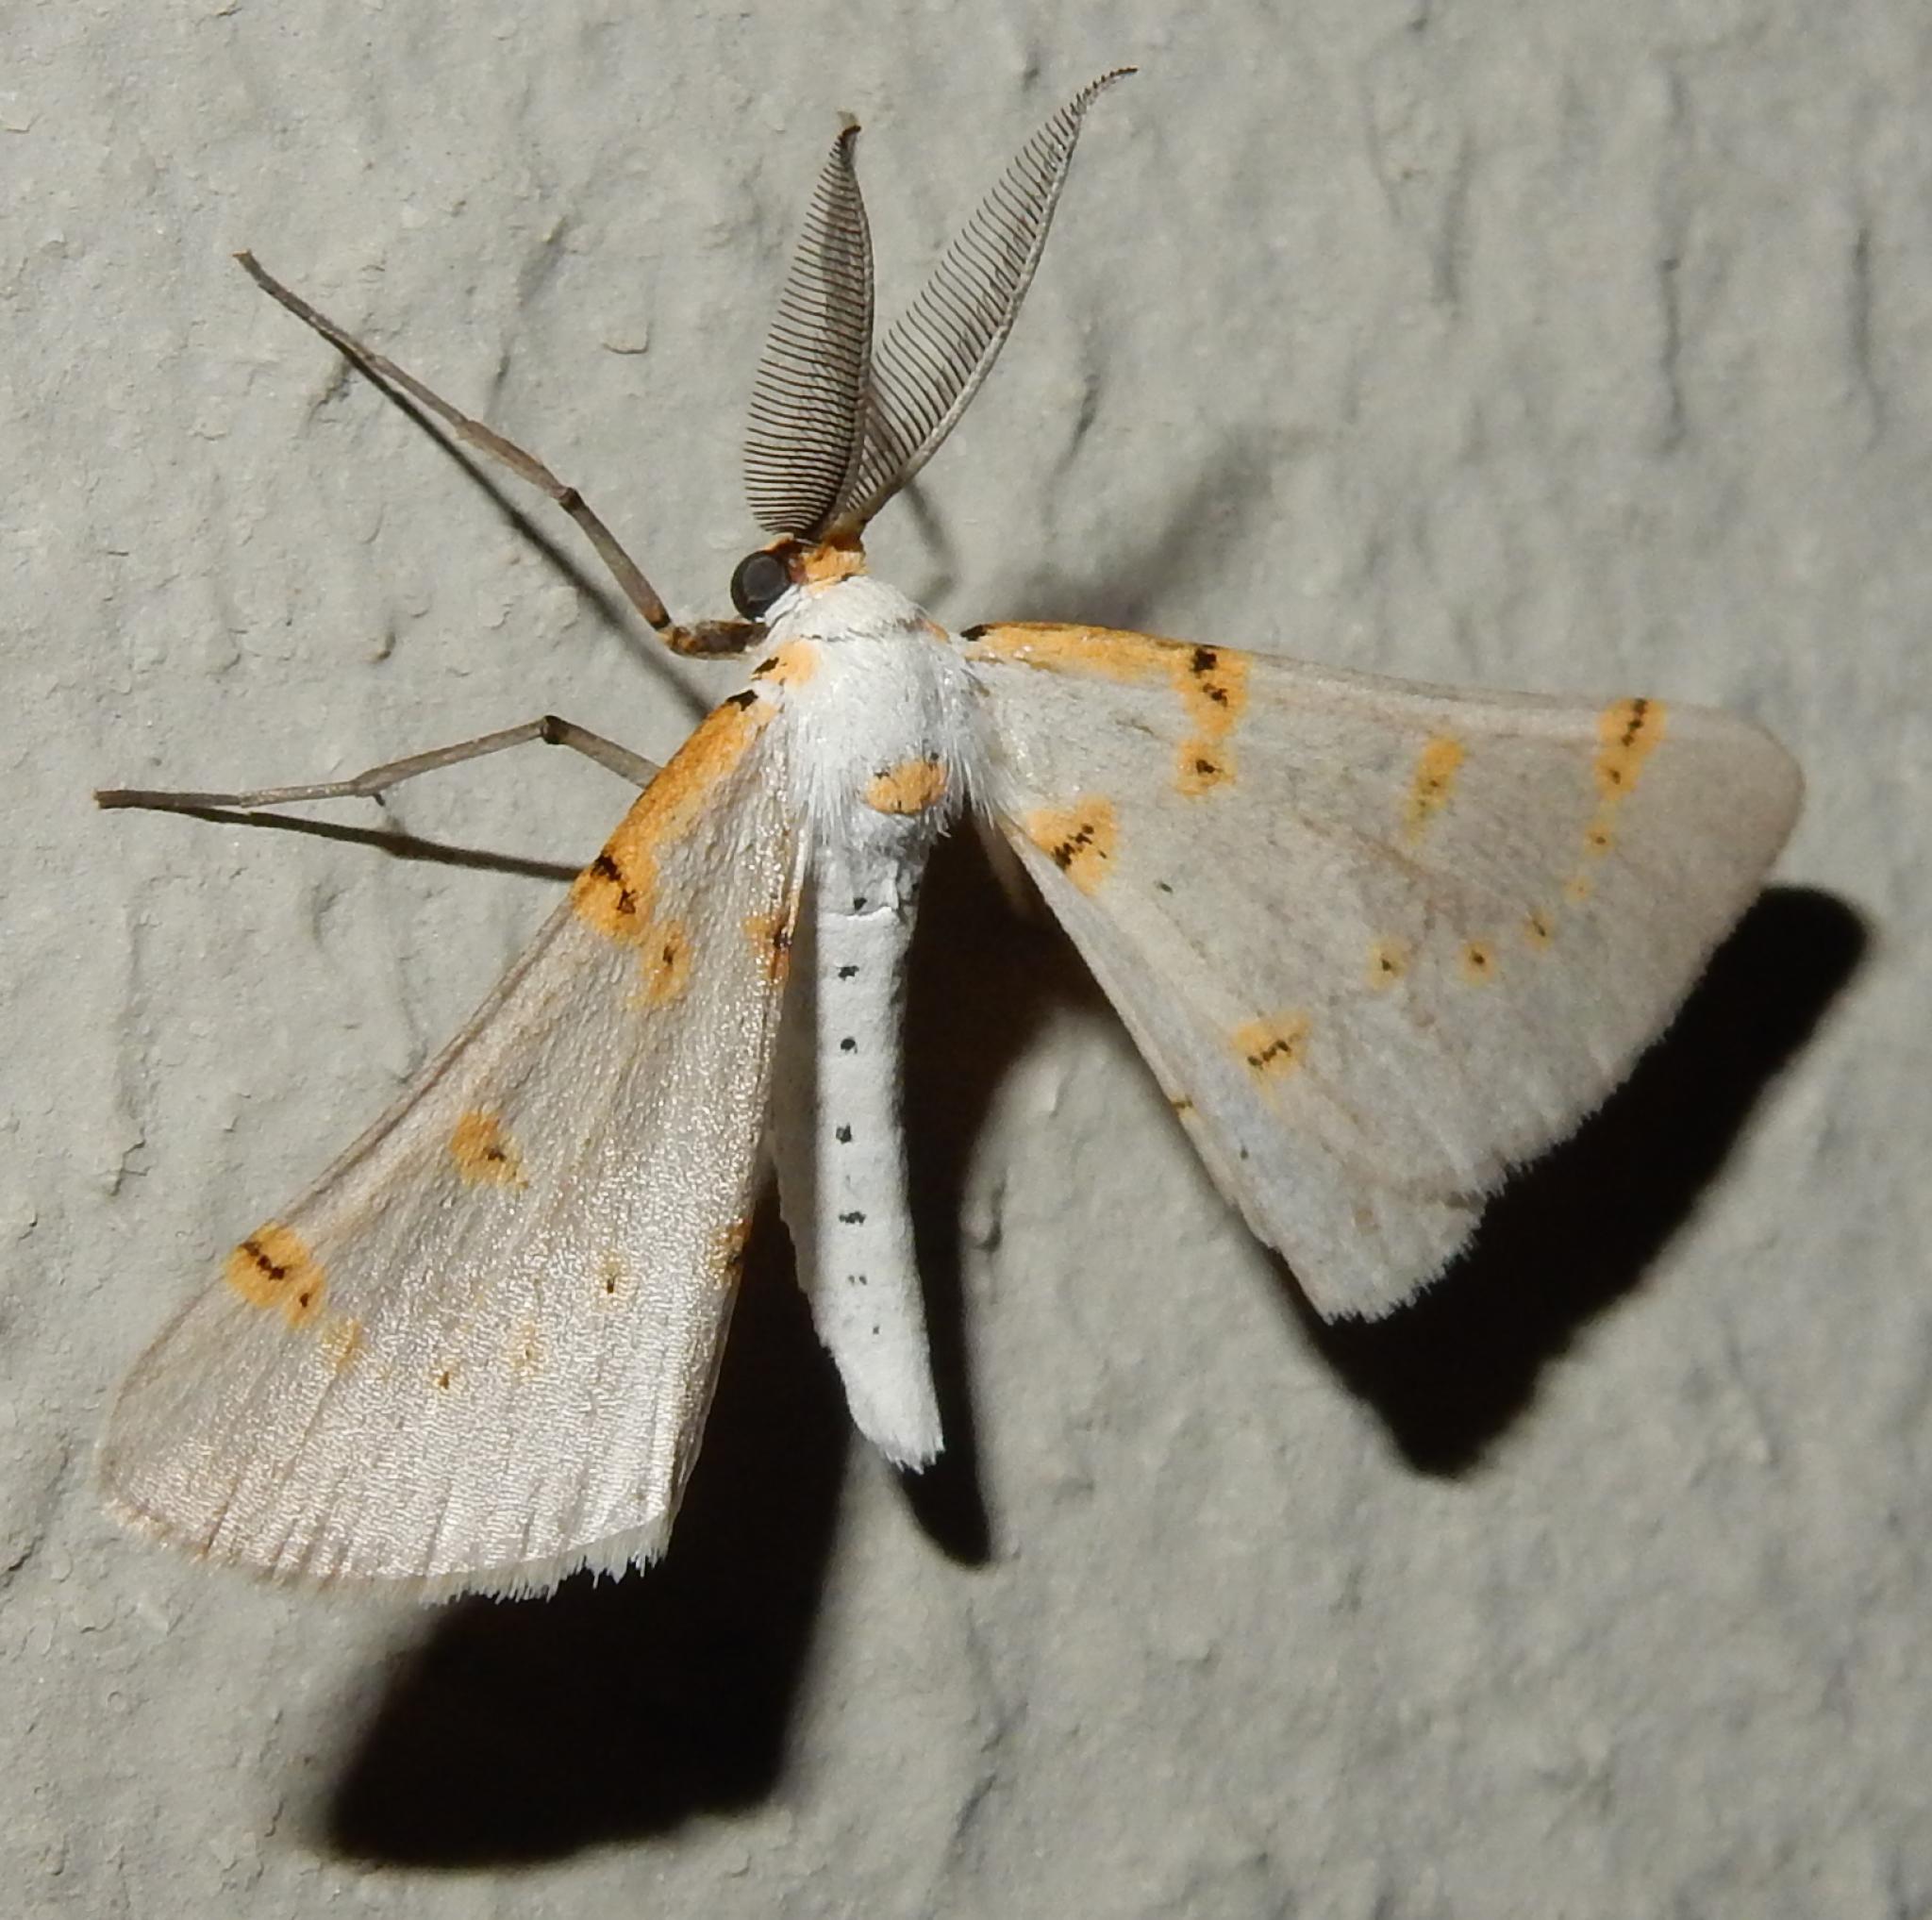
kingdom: Animalia
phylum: Arthropoda
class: Insecta
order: Lepidoptera
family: Geometridae
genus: Nassinia
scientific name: Nassinia caffraria
